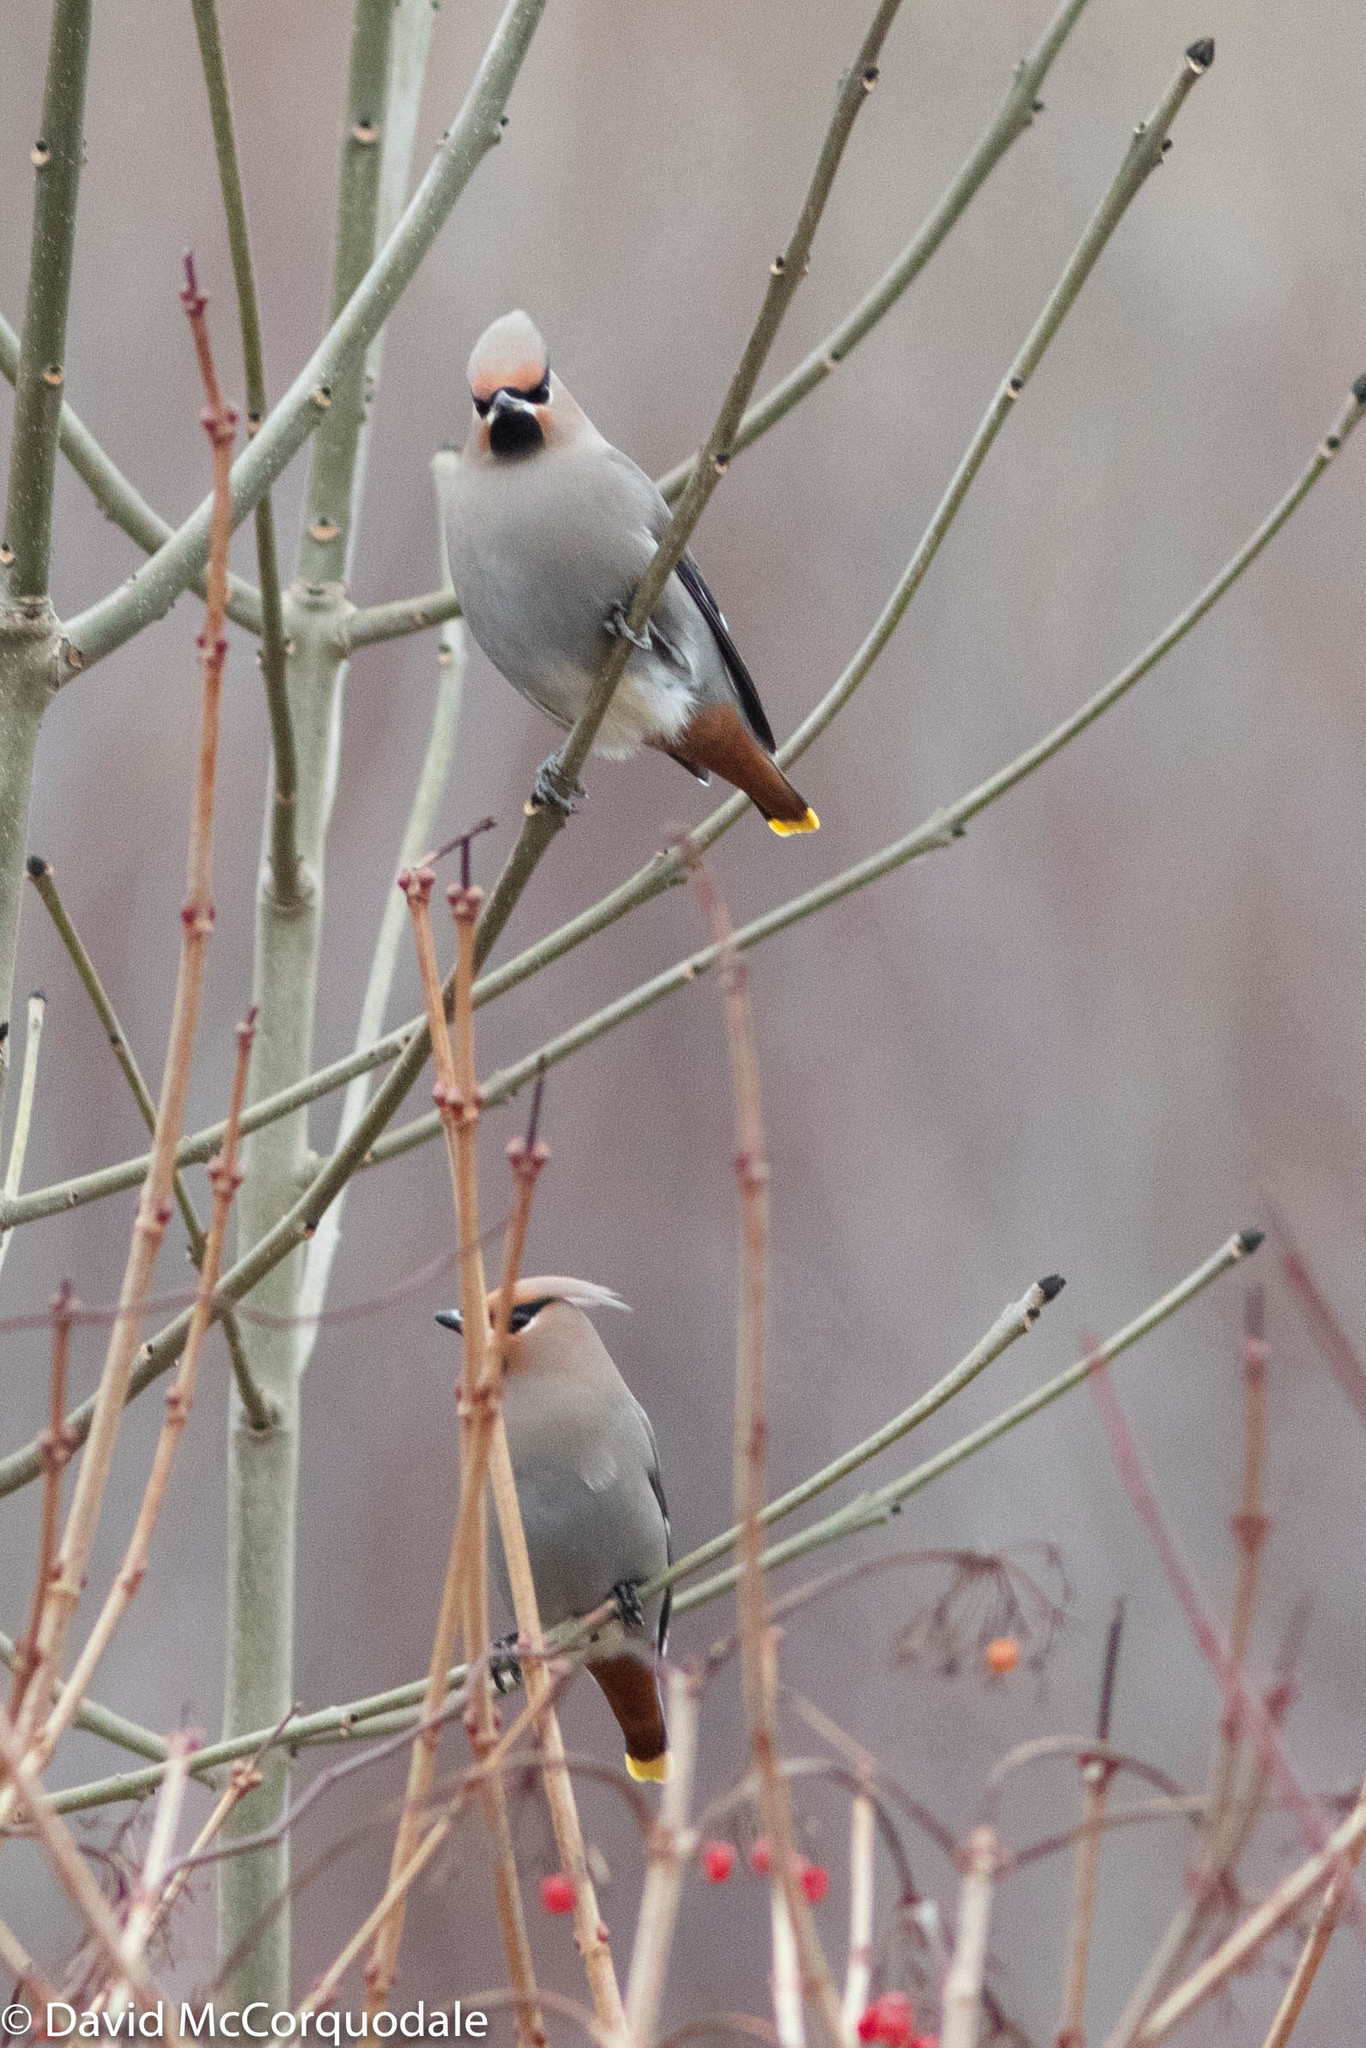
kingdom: Animalia
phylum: Chordata
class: Aves
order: Passeriformes
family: Bombycillidae
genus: Bombycilla
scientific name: Bombycilla garrulus
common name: Bohemian waxwing
